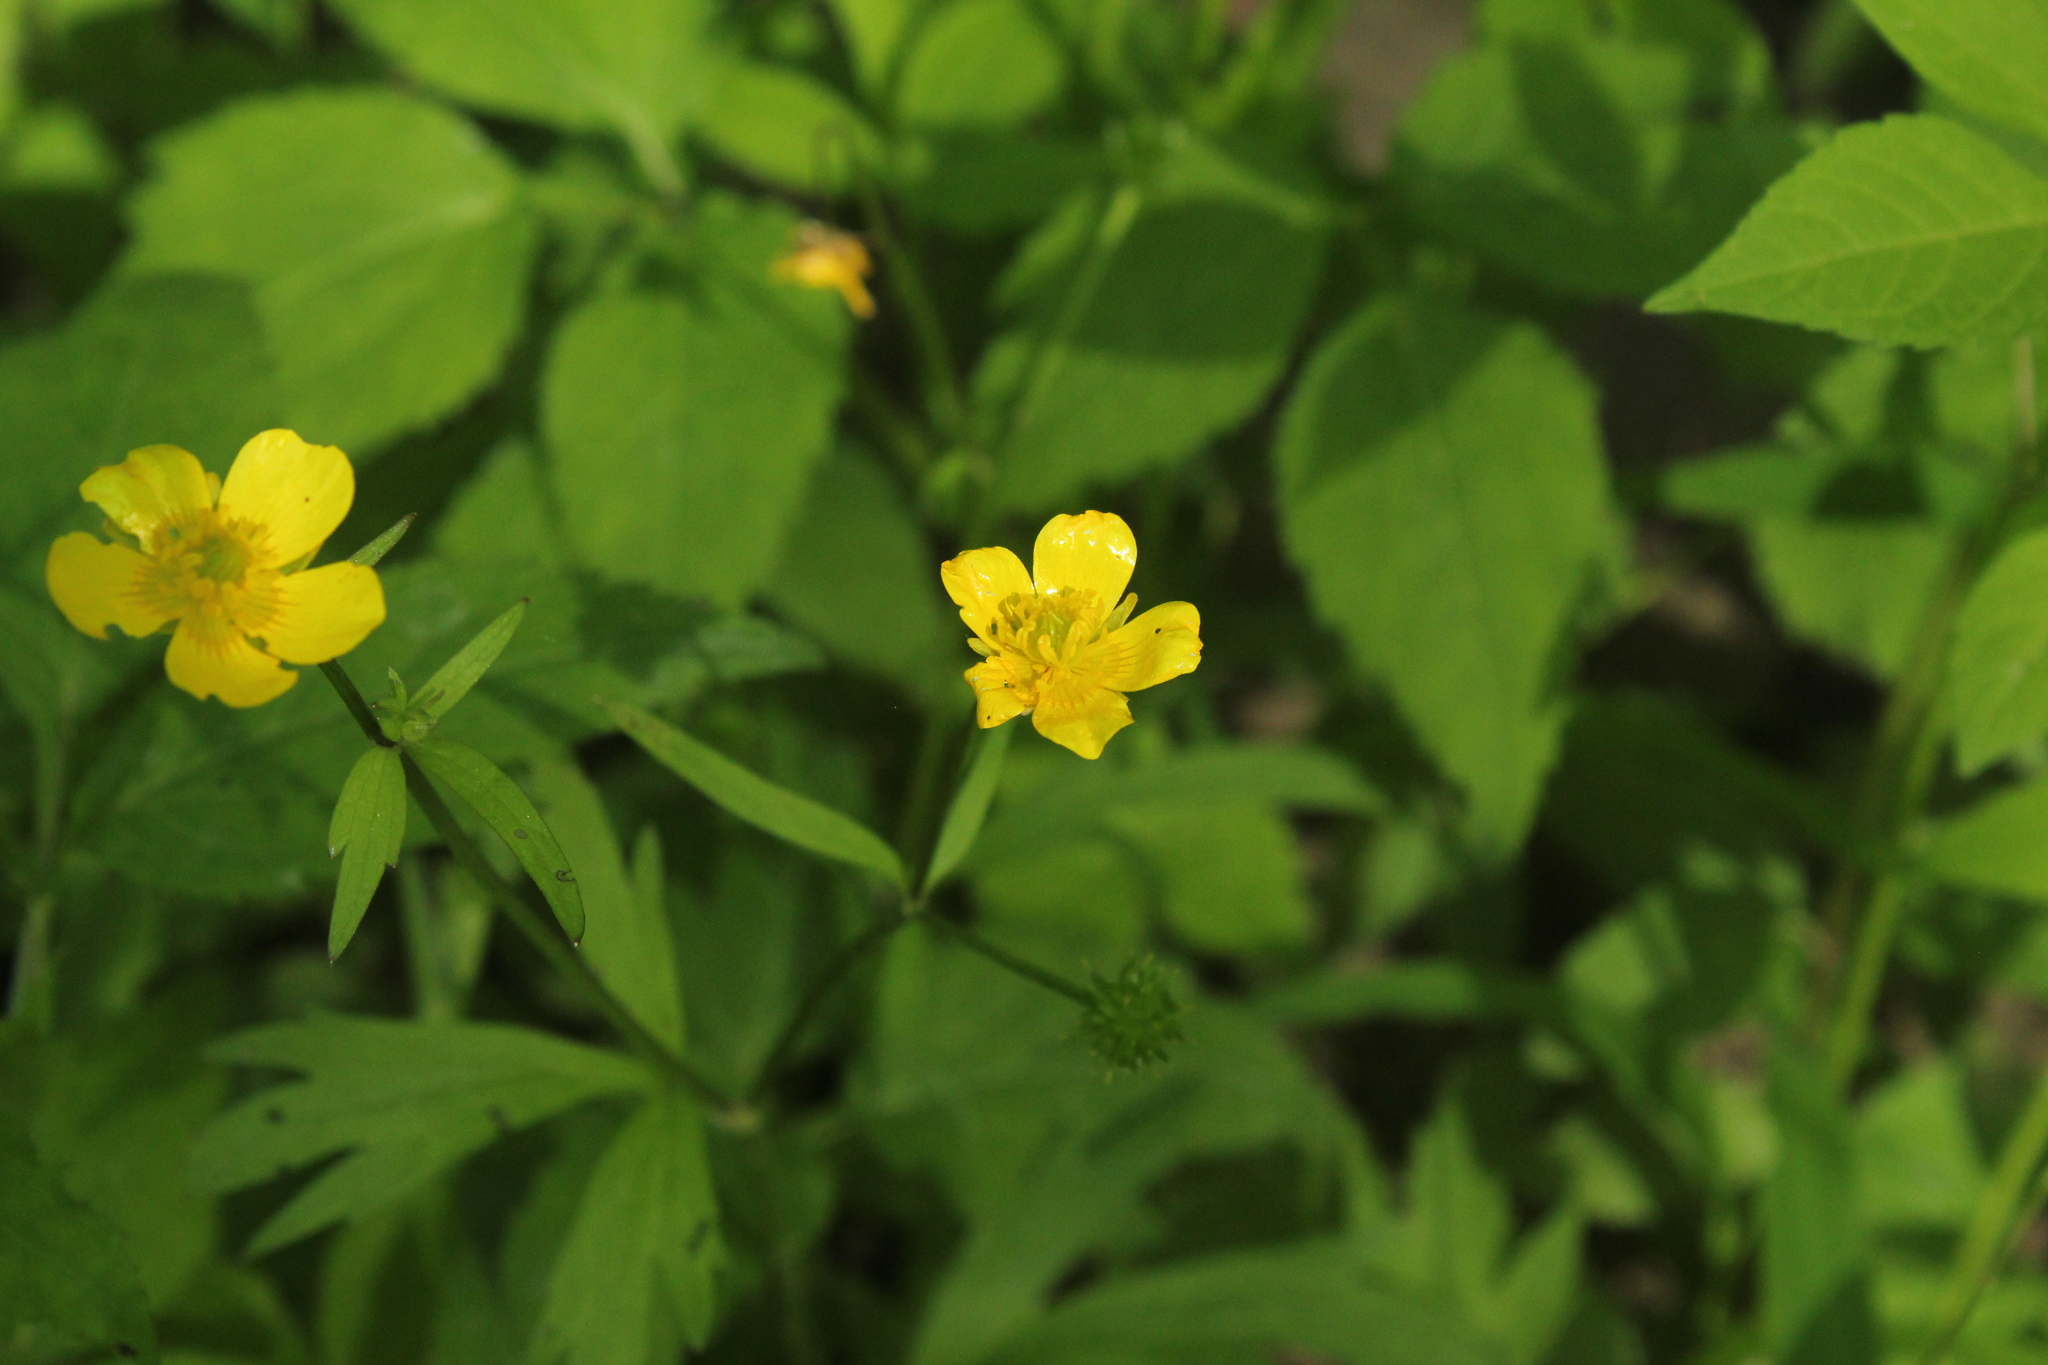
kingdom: Plantae
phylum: Tracheophyta
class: Magnoliopsida
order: Ranunculales
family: Ranunculaceae
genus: Ranunculus
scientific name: Ranunculus hispidus
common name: Bristly buttercup
